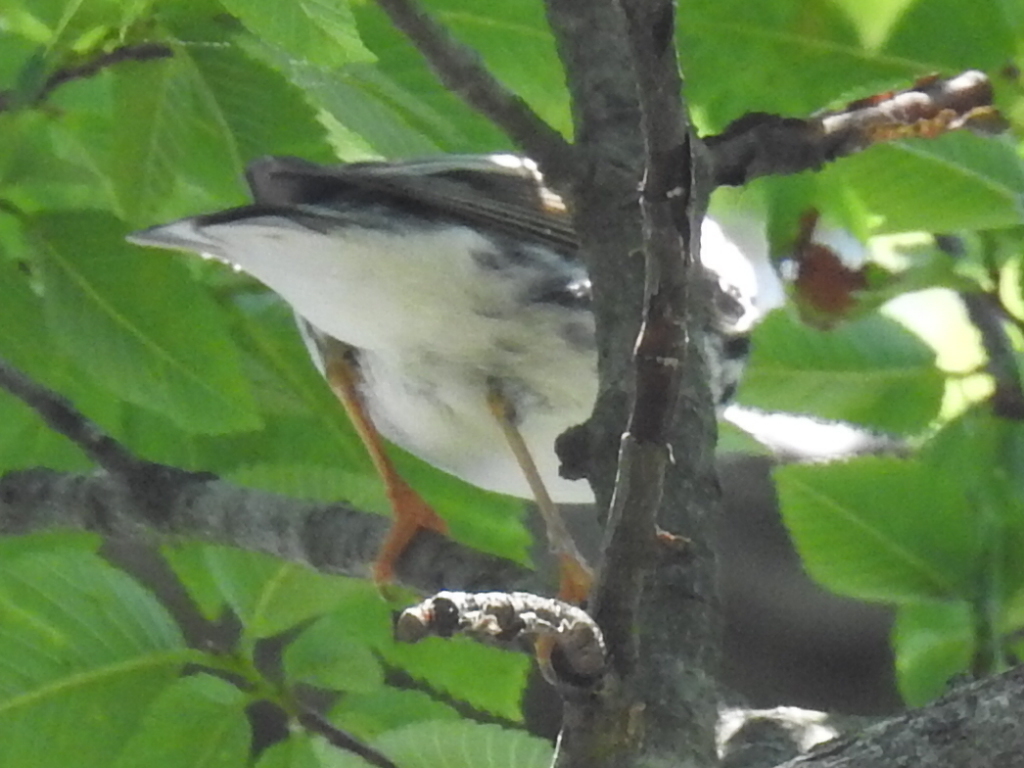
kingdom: Animalia
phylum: Chordata
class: Aves
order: Passeriformes
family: Parulidae
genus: Setophaga
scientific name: Setophaga striata
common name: Blackpoll warbler
